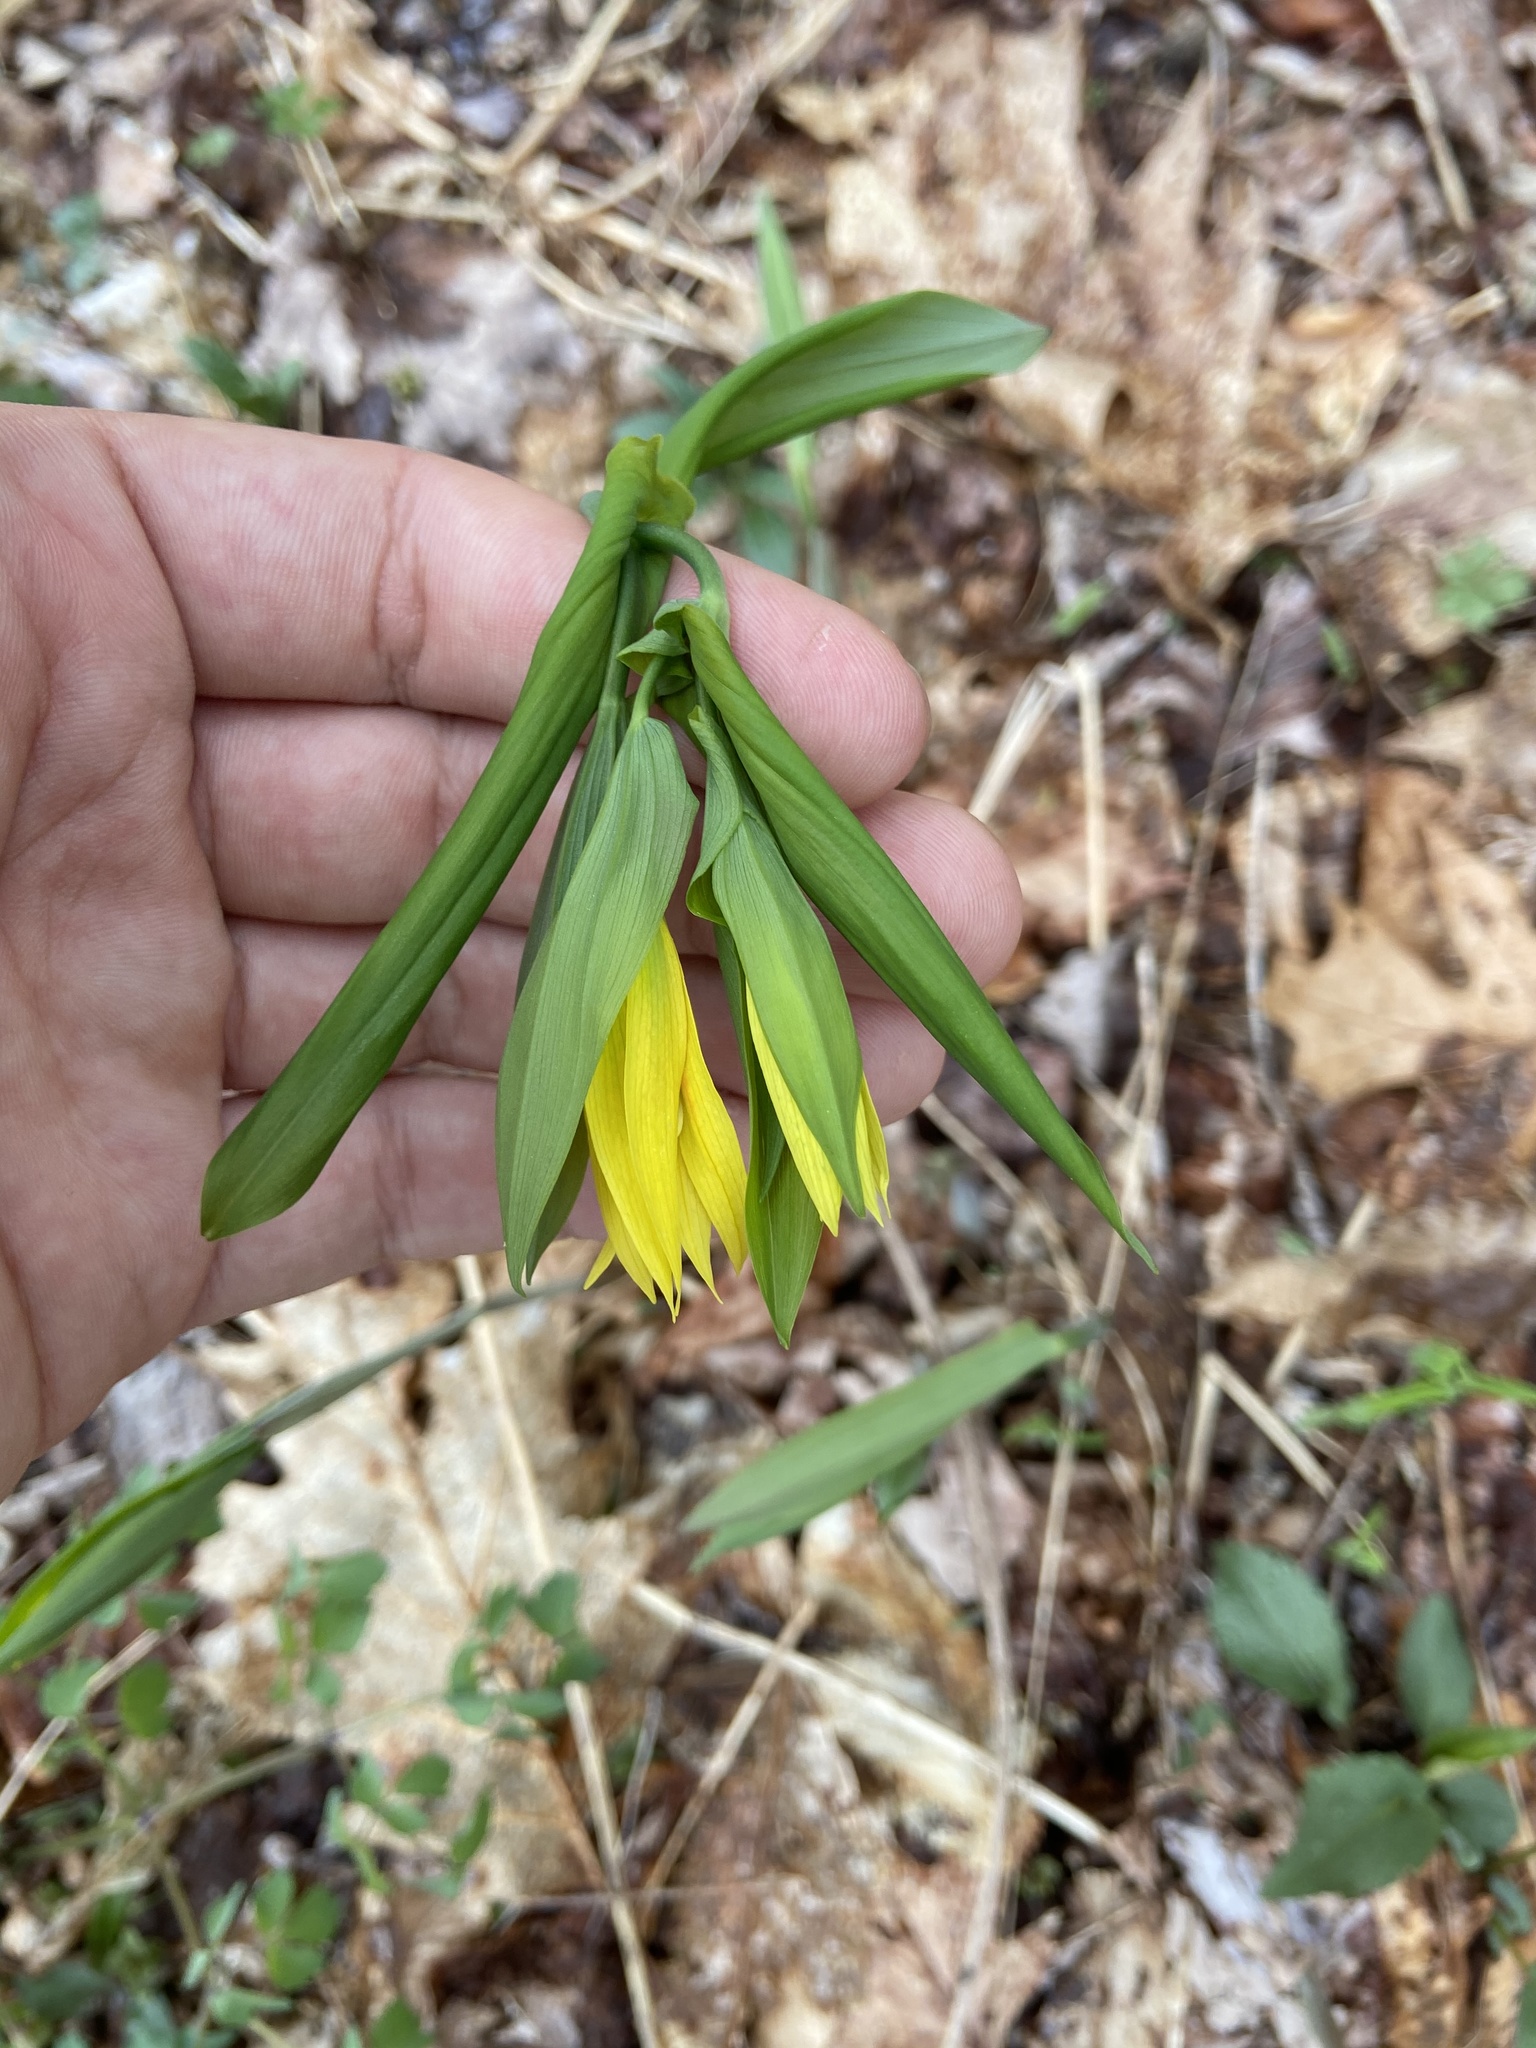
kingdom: Plantae
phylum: Tracheophyta
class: Liliopsida
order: Liliales
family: Colchicaceae
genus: Uvularia
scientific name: Uvularia grandiflora
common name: Bellwort
